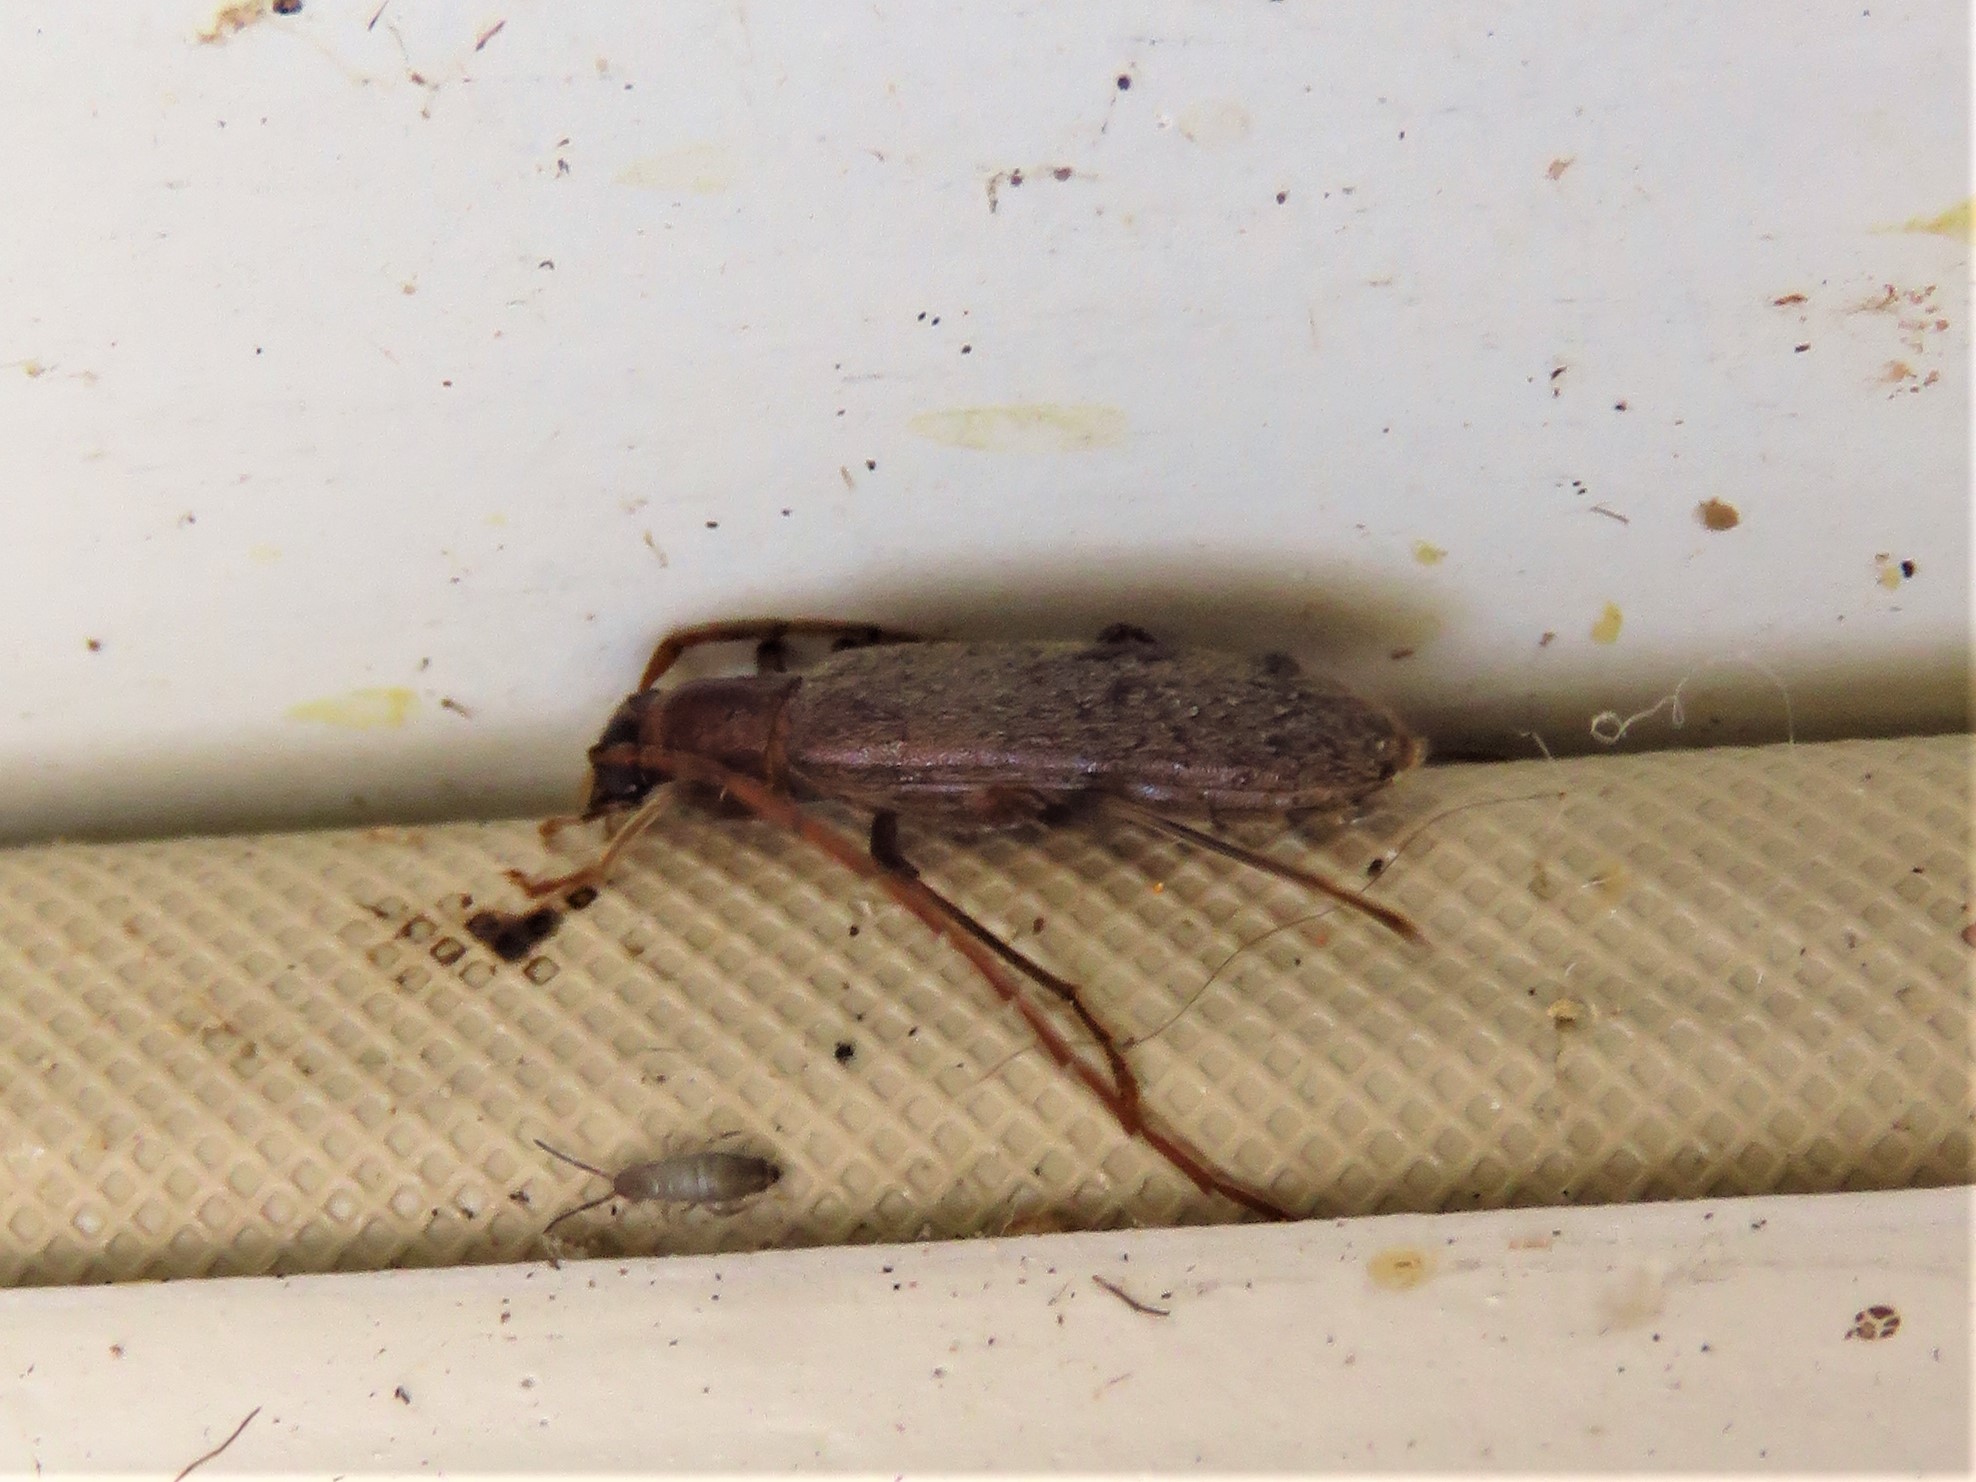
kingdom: Animalia
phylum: Arthropoda
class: Insecta
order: Coleoptera
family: Oedemeridae
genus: Sparedrus
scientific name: Sparedrus aspersus
